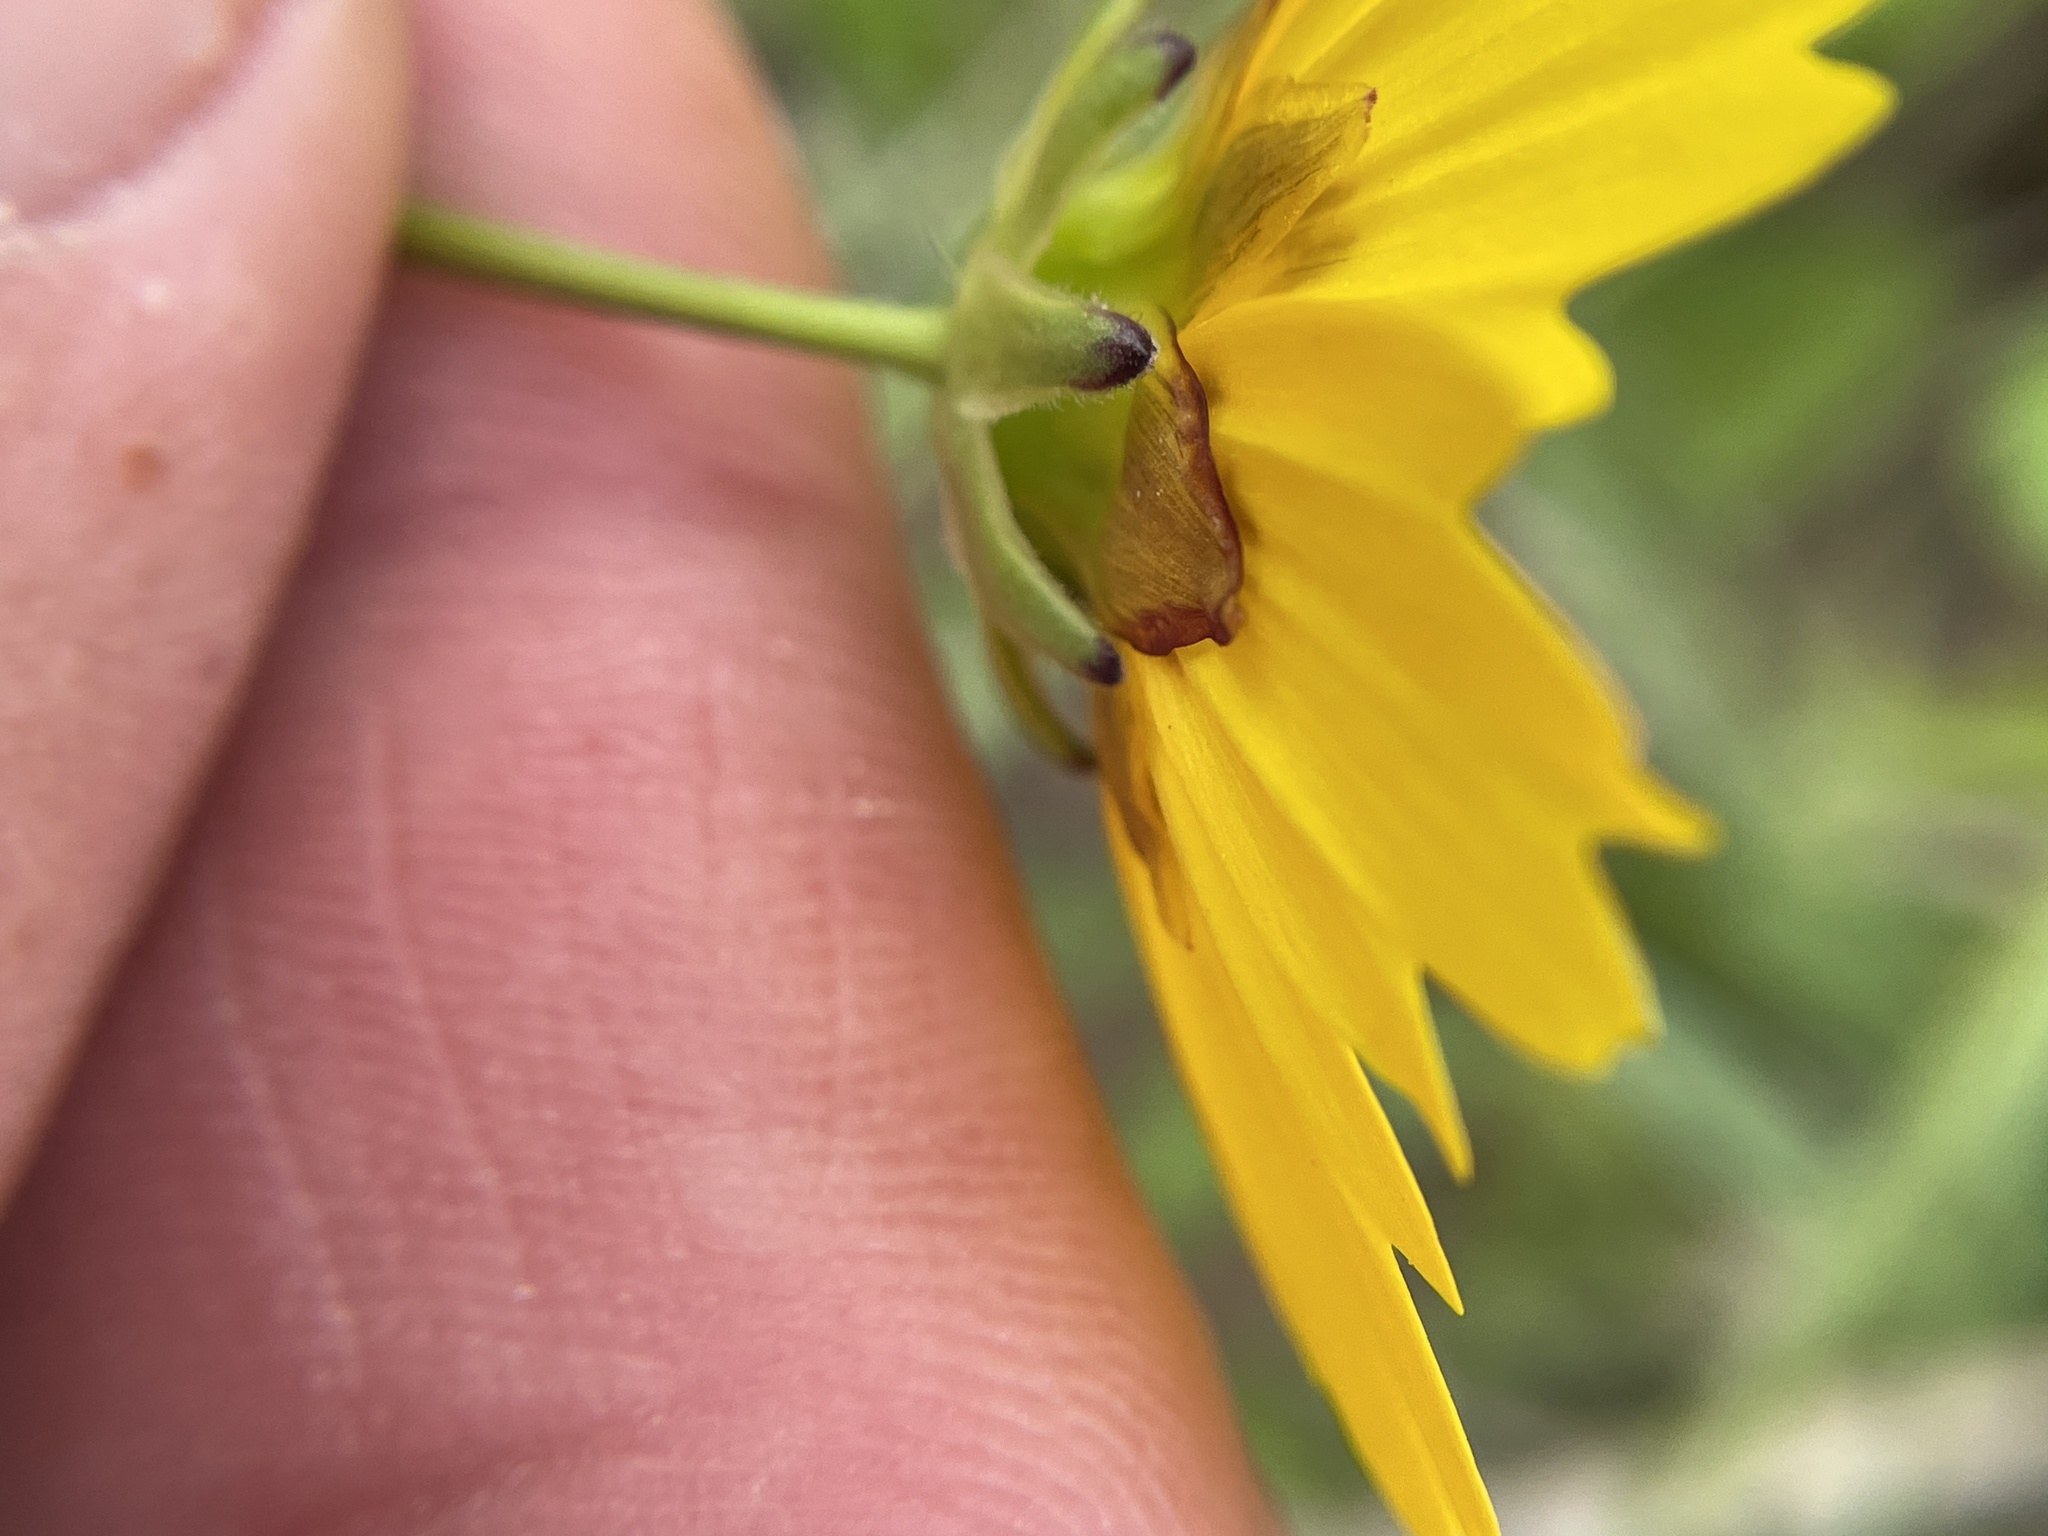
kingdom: Plantae
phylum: Tracheophyta
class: Magnoliopsida
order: Asterales
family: Asteraceae
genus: Coreopsis
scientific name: Coreopsis nuecensis
